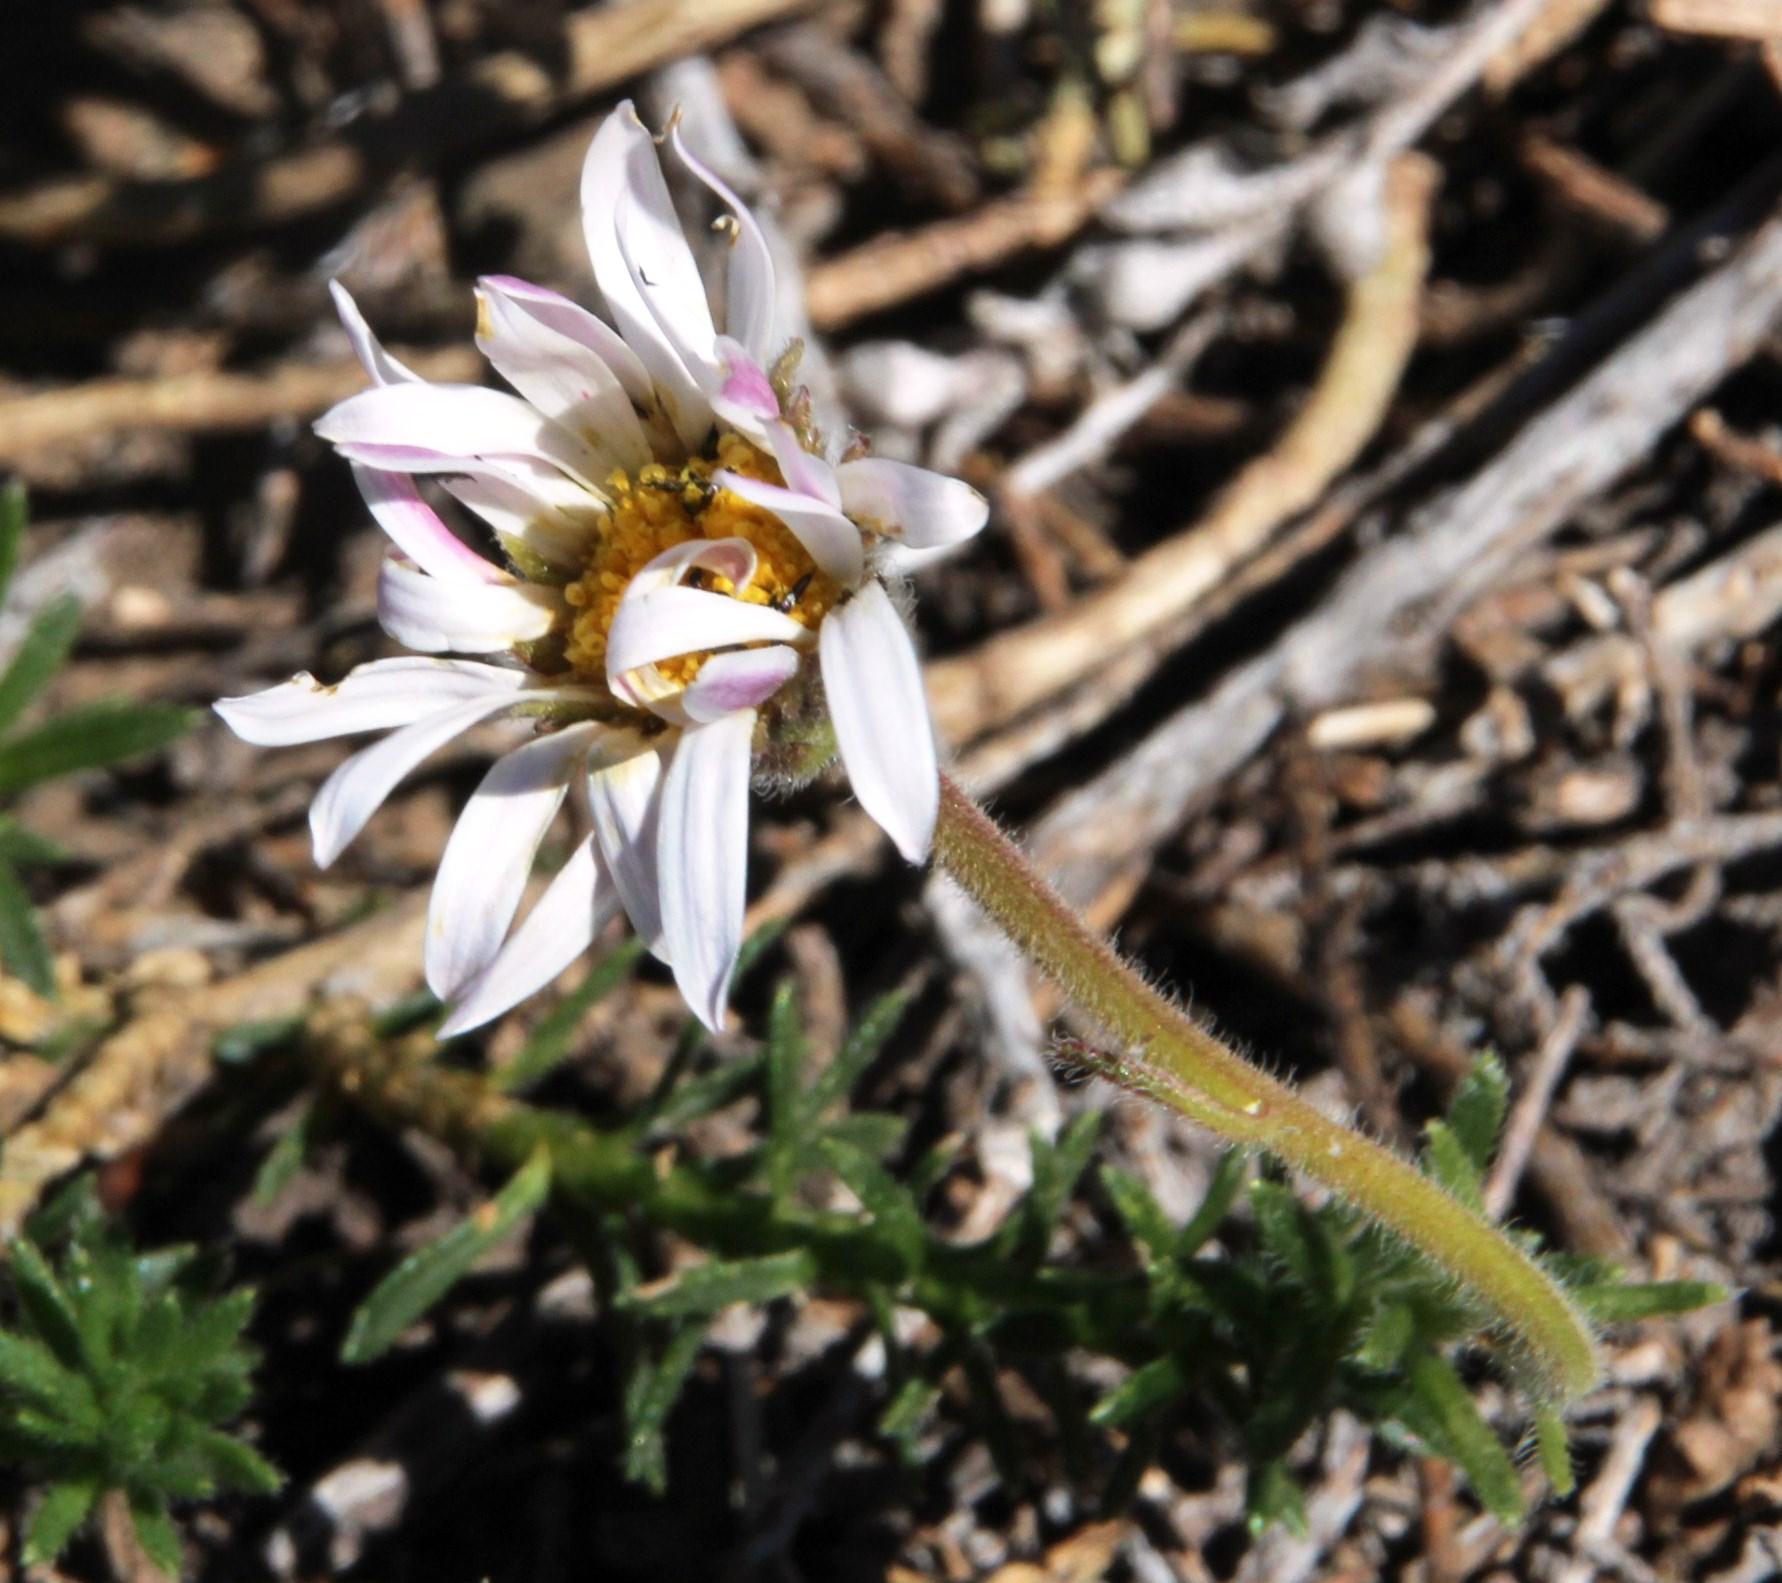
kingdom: Plantae
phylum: Tracheophyta
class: Magnoliopsida
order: Asterales
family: Asteraceae
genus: Polyarrhena
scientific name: Polyarrhena imbricata
